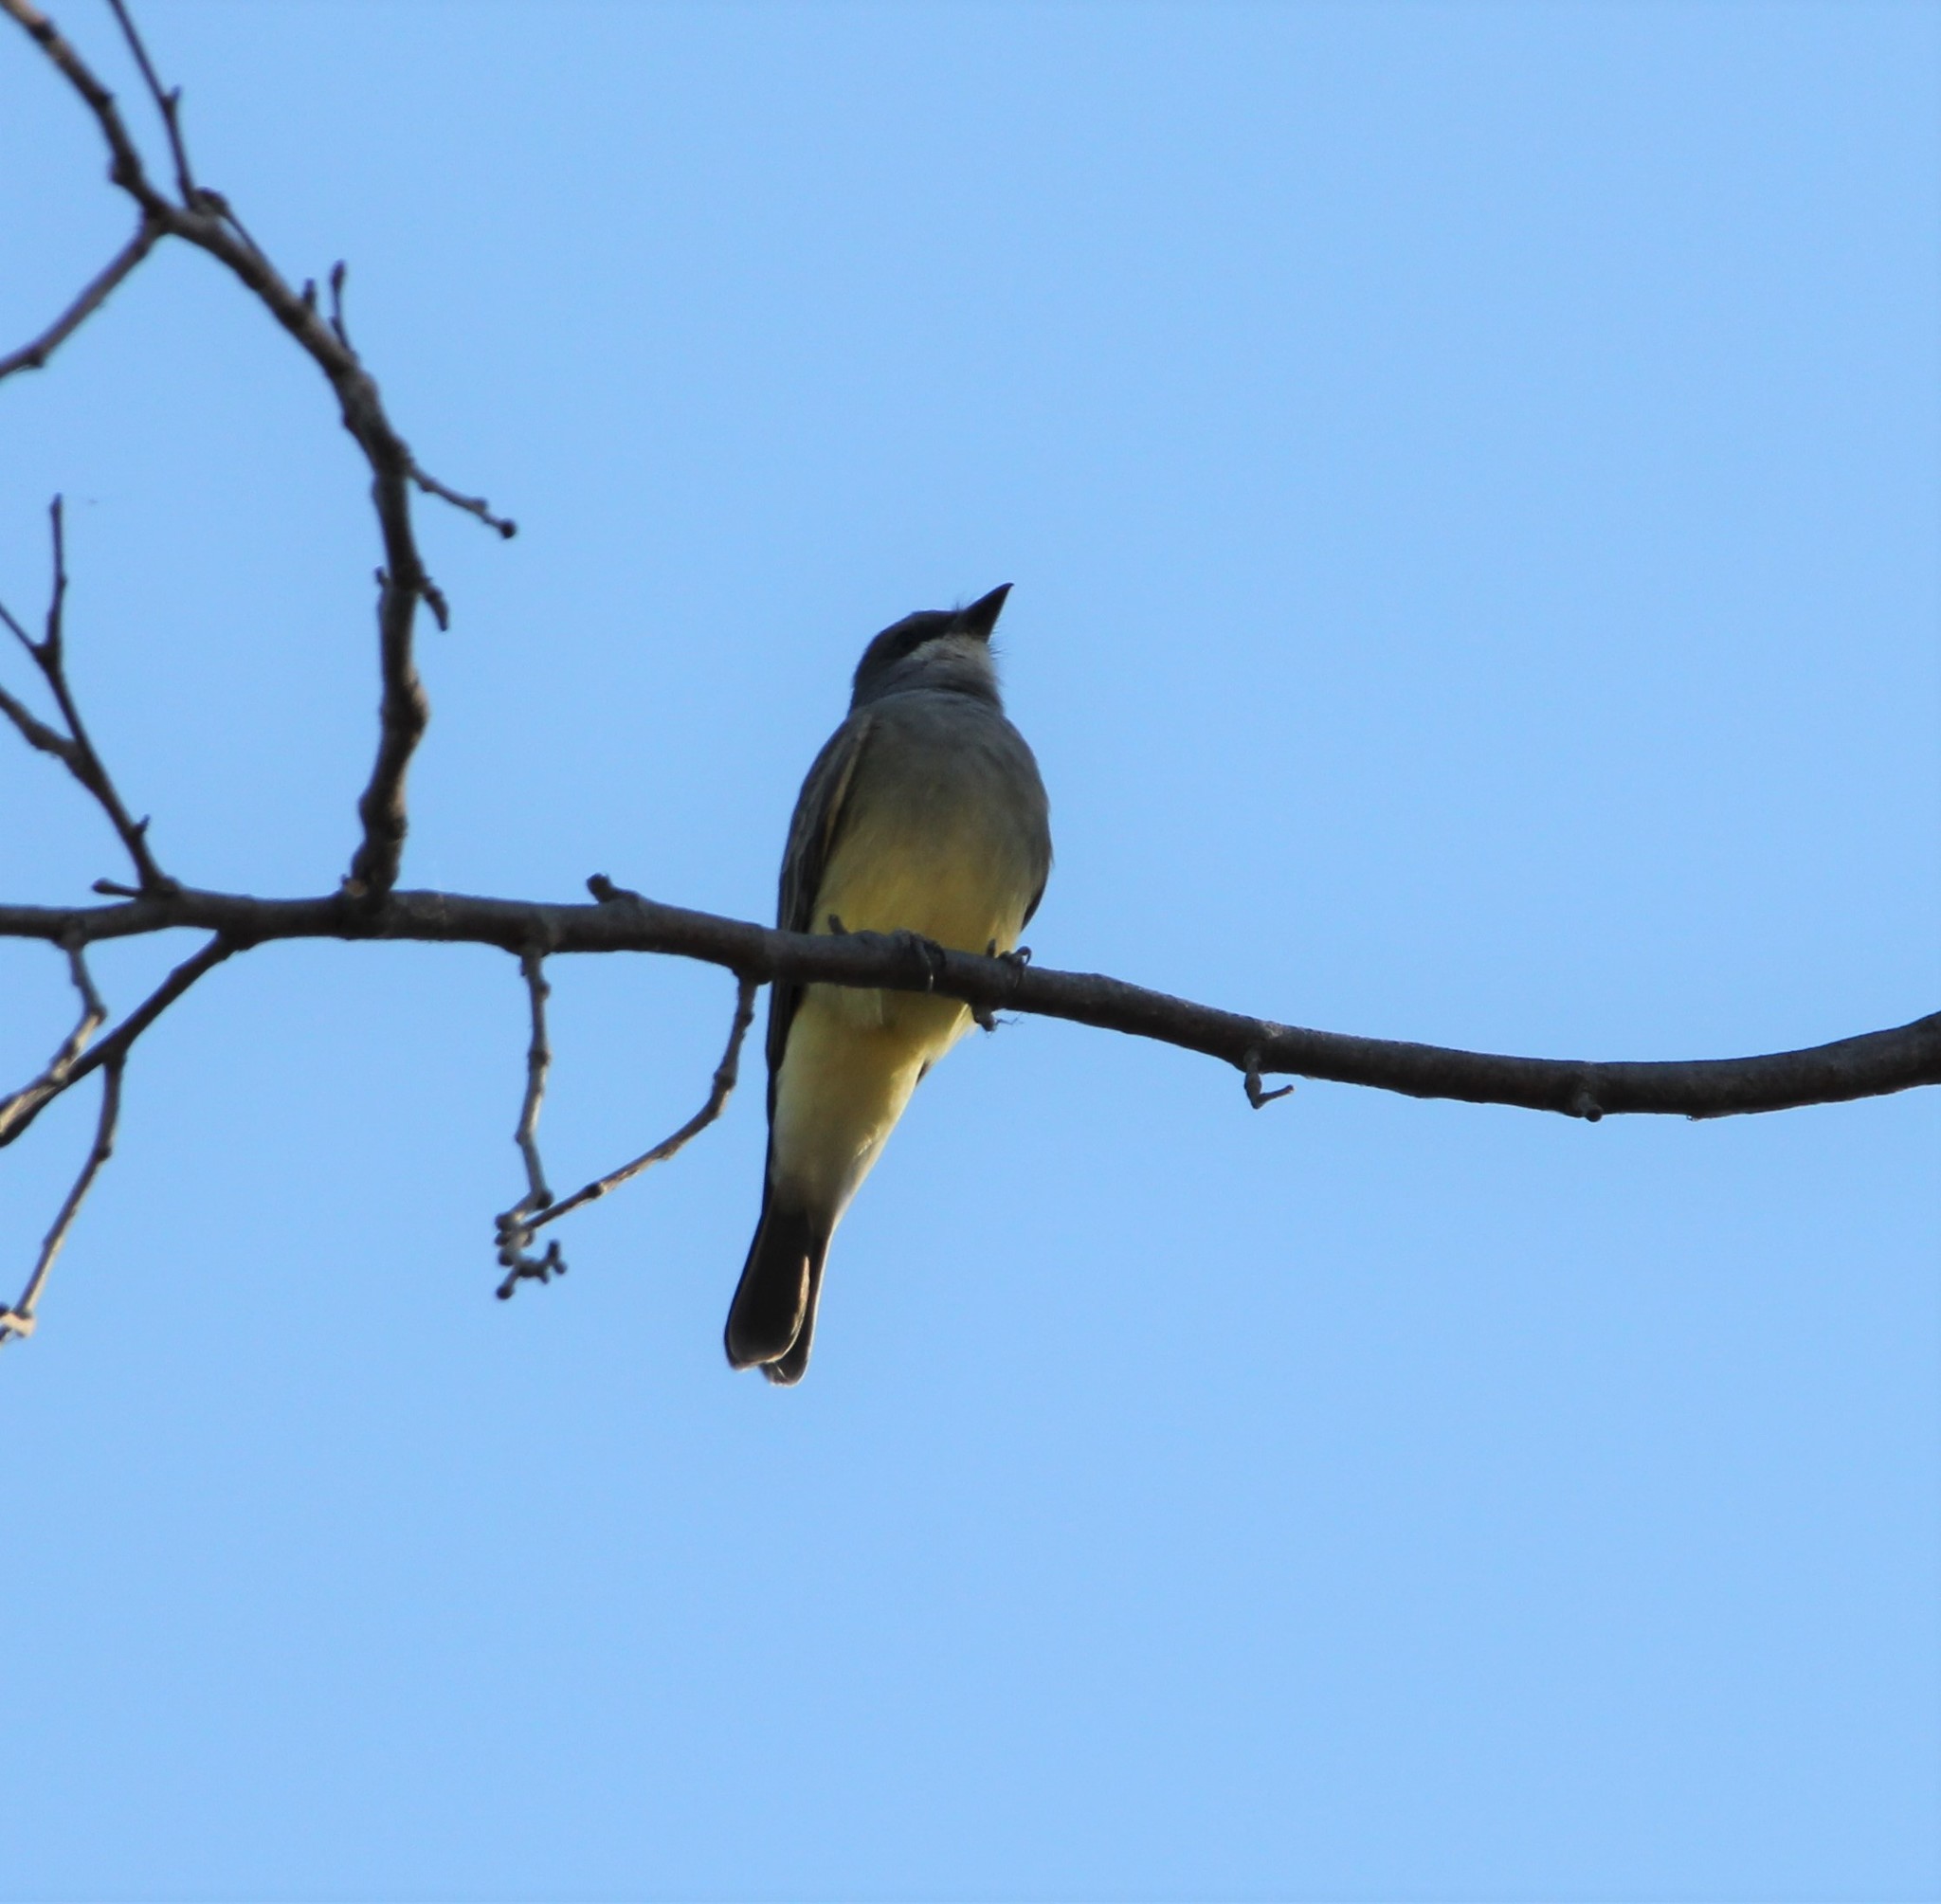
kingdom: Animalia
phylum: Chordata
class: Aves
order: Passeriformes
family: Tyrannidae
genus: Tyrannus
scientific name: Tyrannus vociferans
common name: Cassin's kingbird
